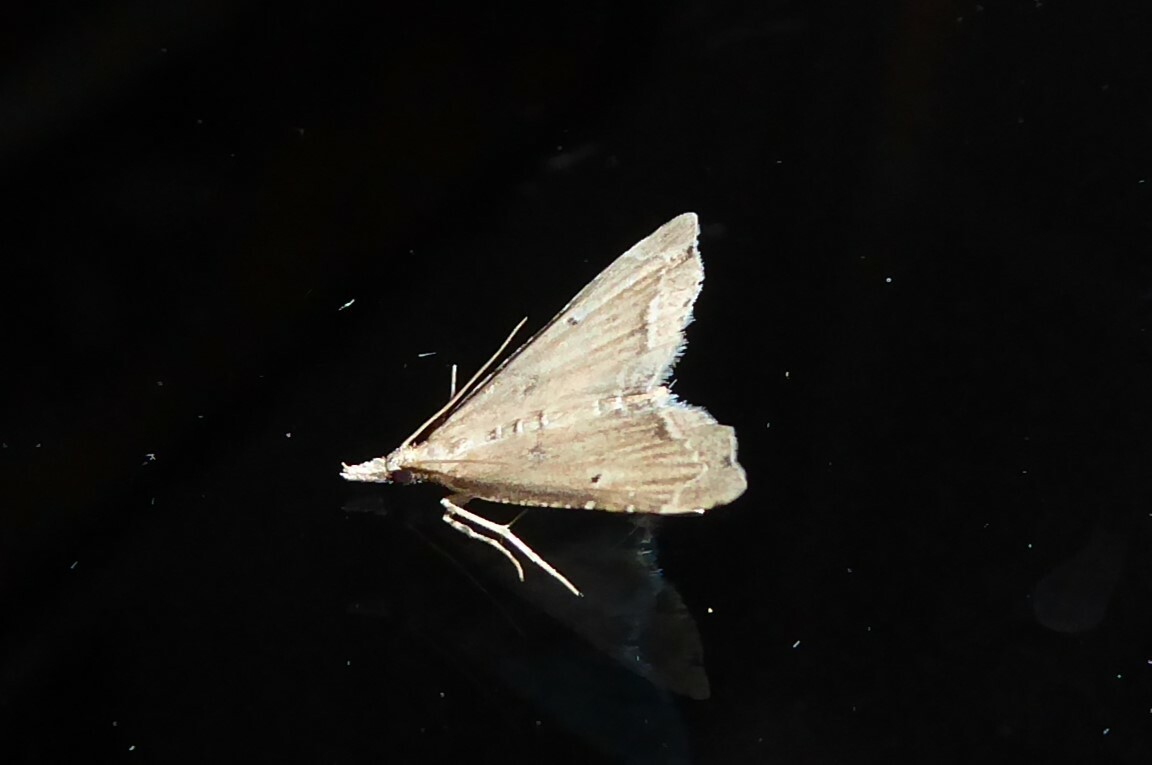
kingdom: Animalia
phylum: Arthropoda
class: Insecta
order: Lepidoptera
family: Crambidae
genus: Diplopseustis
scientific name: Diplopseustis perieresalis
